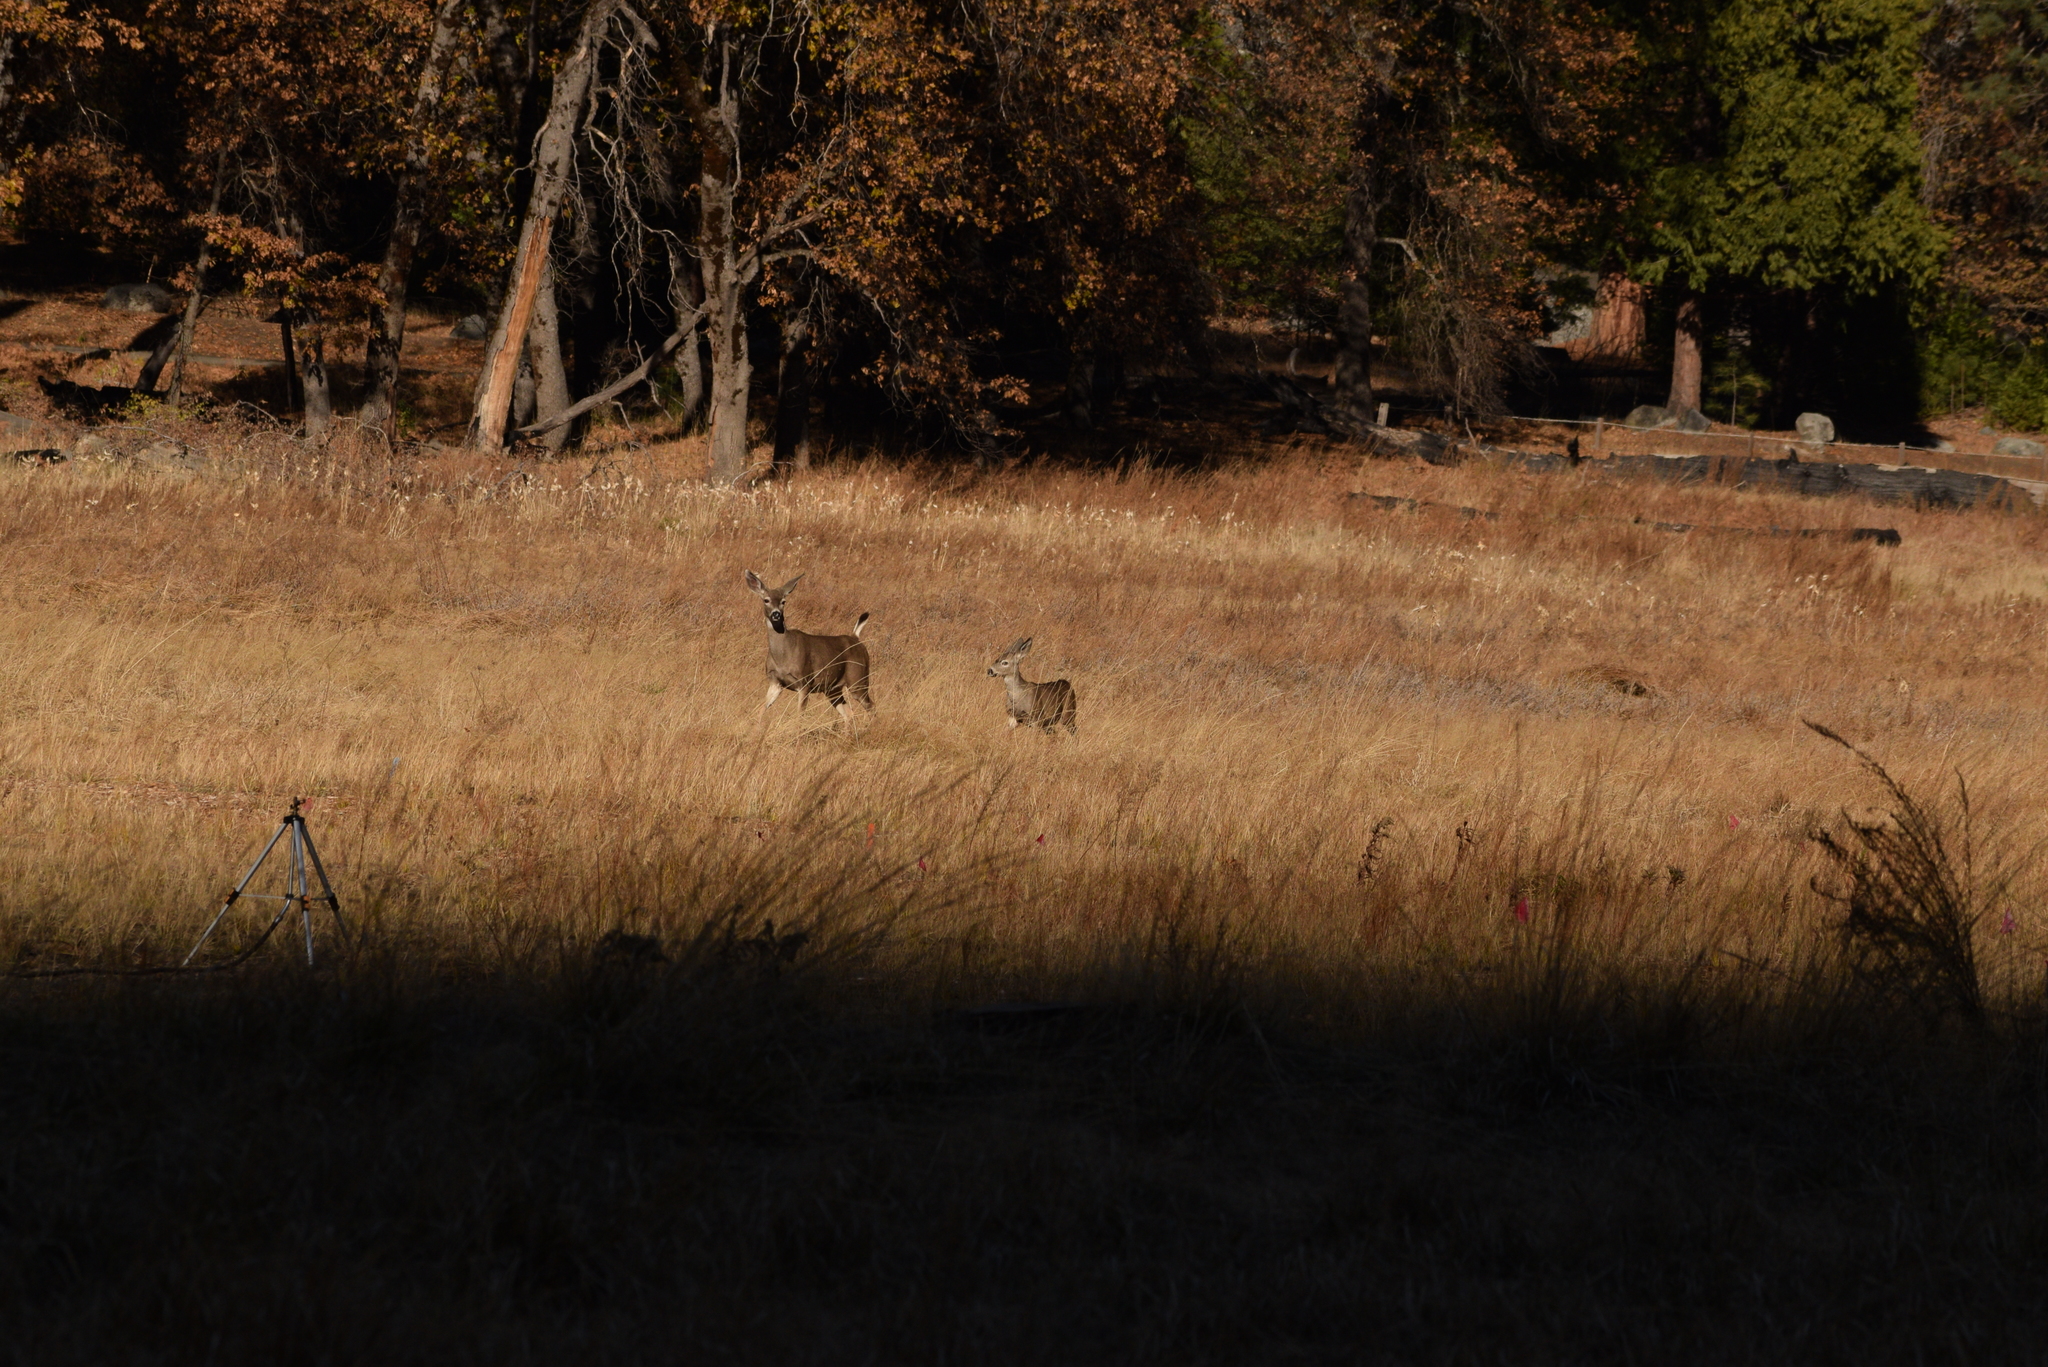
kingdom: Animalia
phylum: Chordata
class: Mammalia
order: Artiodactyla
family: Cervidae
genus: Odocoileus
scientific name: Odocoileus hemionus
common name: Mule deer
